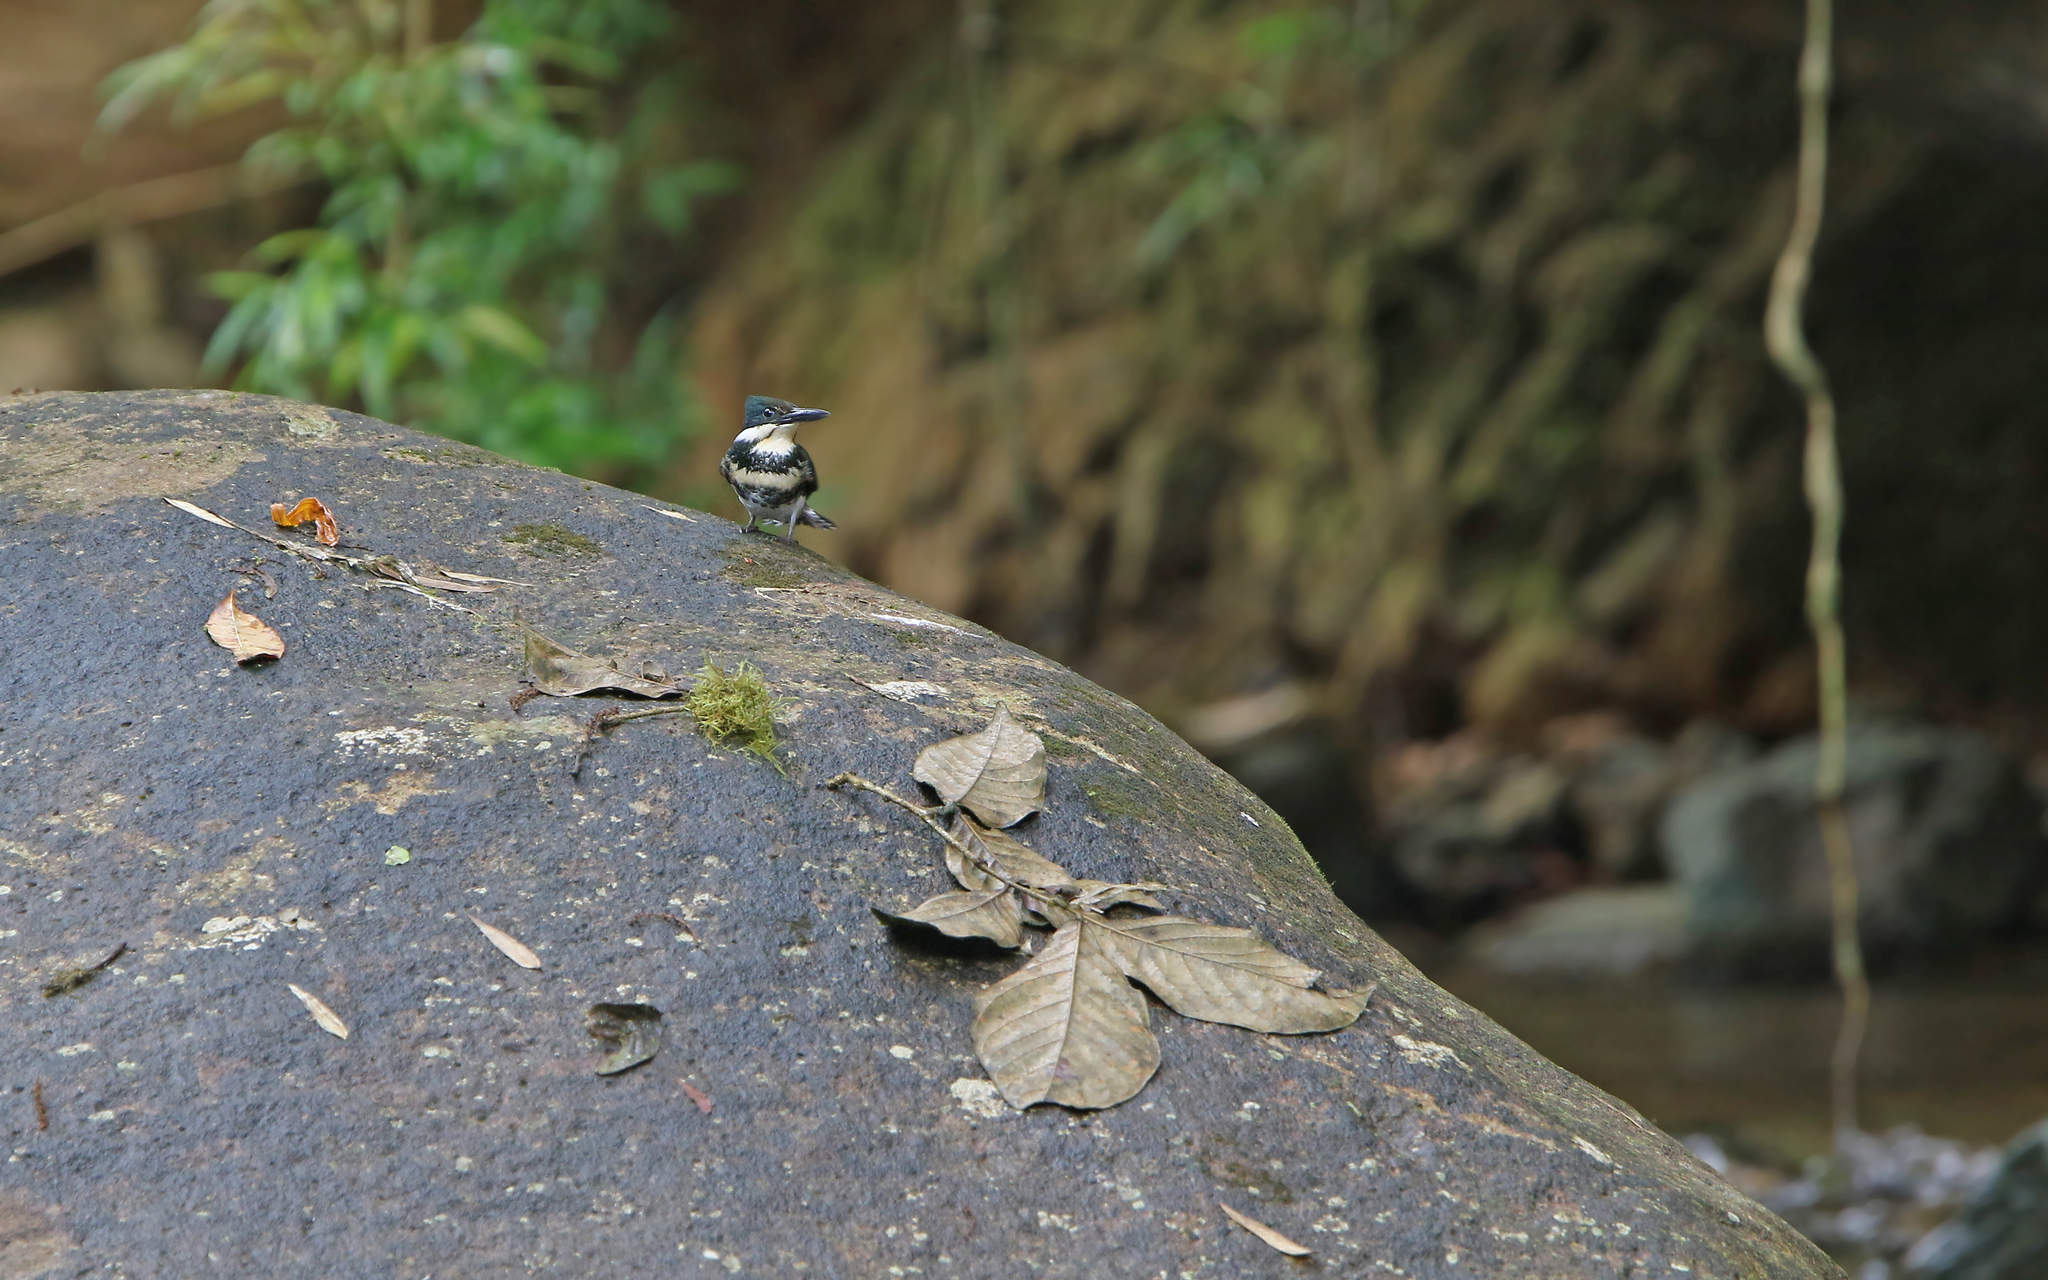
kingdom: Animalia
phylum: Chordata
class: Aves
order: Coraciiformes
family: Alcedinidae
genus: Chloroceryle
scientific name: Chloroceryle americana
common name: Green kingfisher
